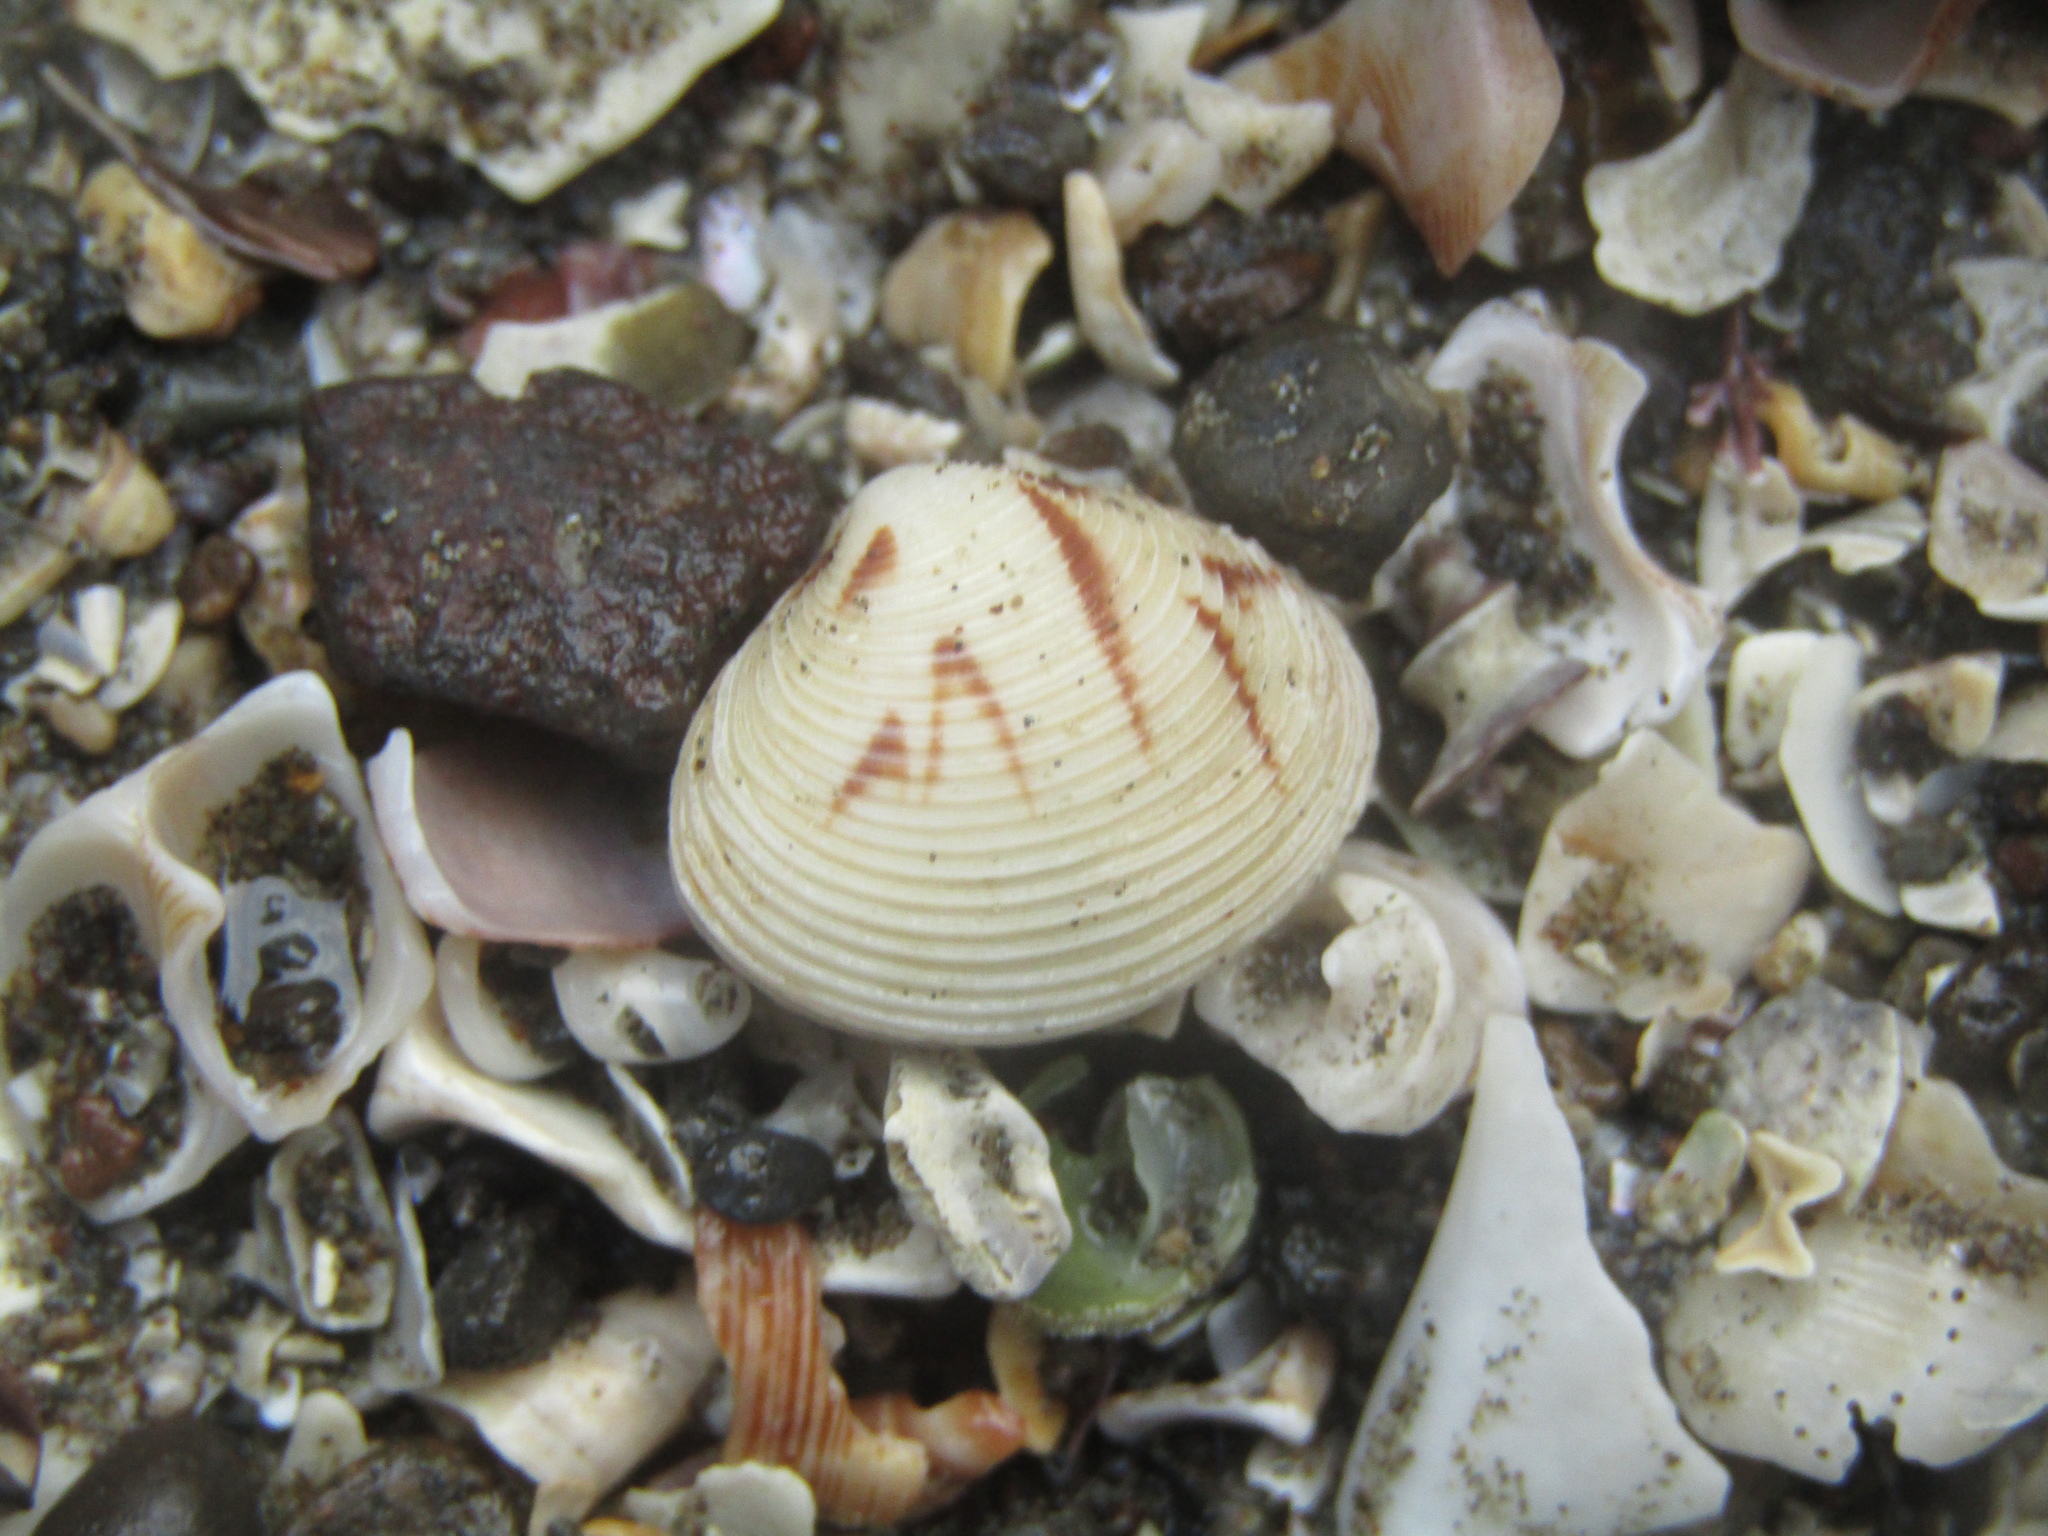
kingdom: Animalia
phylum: Mollusca
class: Bivalvia
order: Venerida
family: Veneridae
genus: Tawera
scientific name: Tawera spissa
